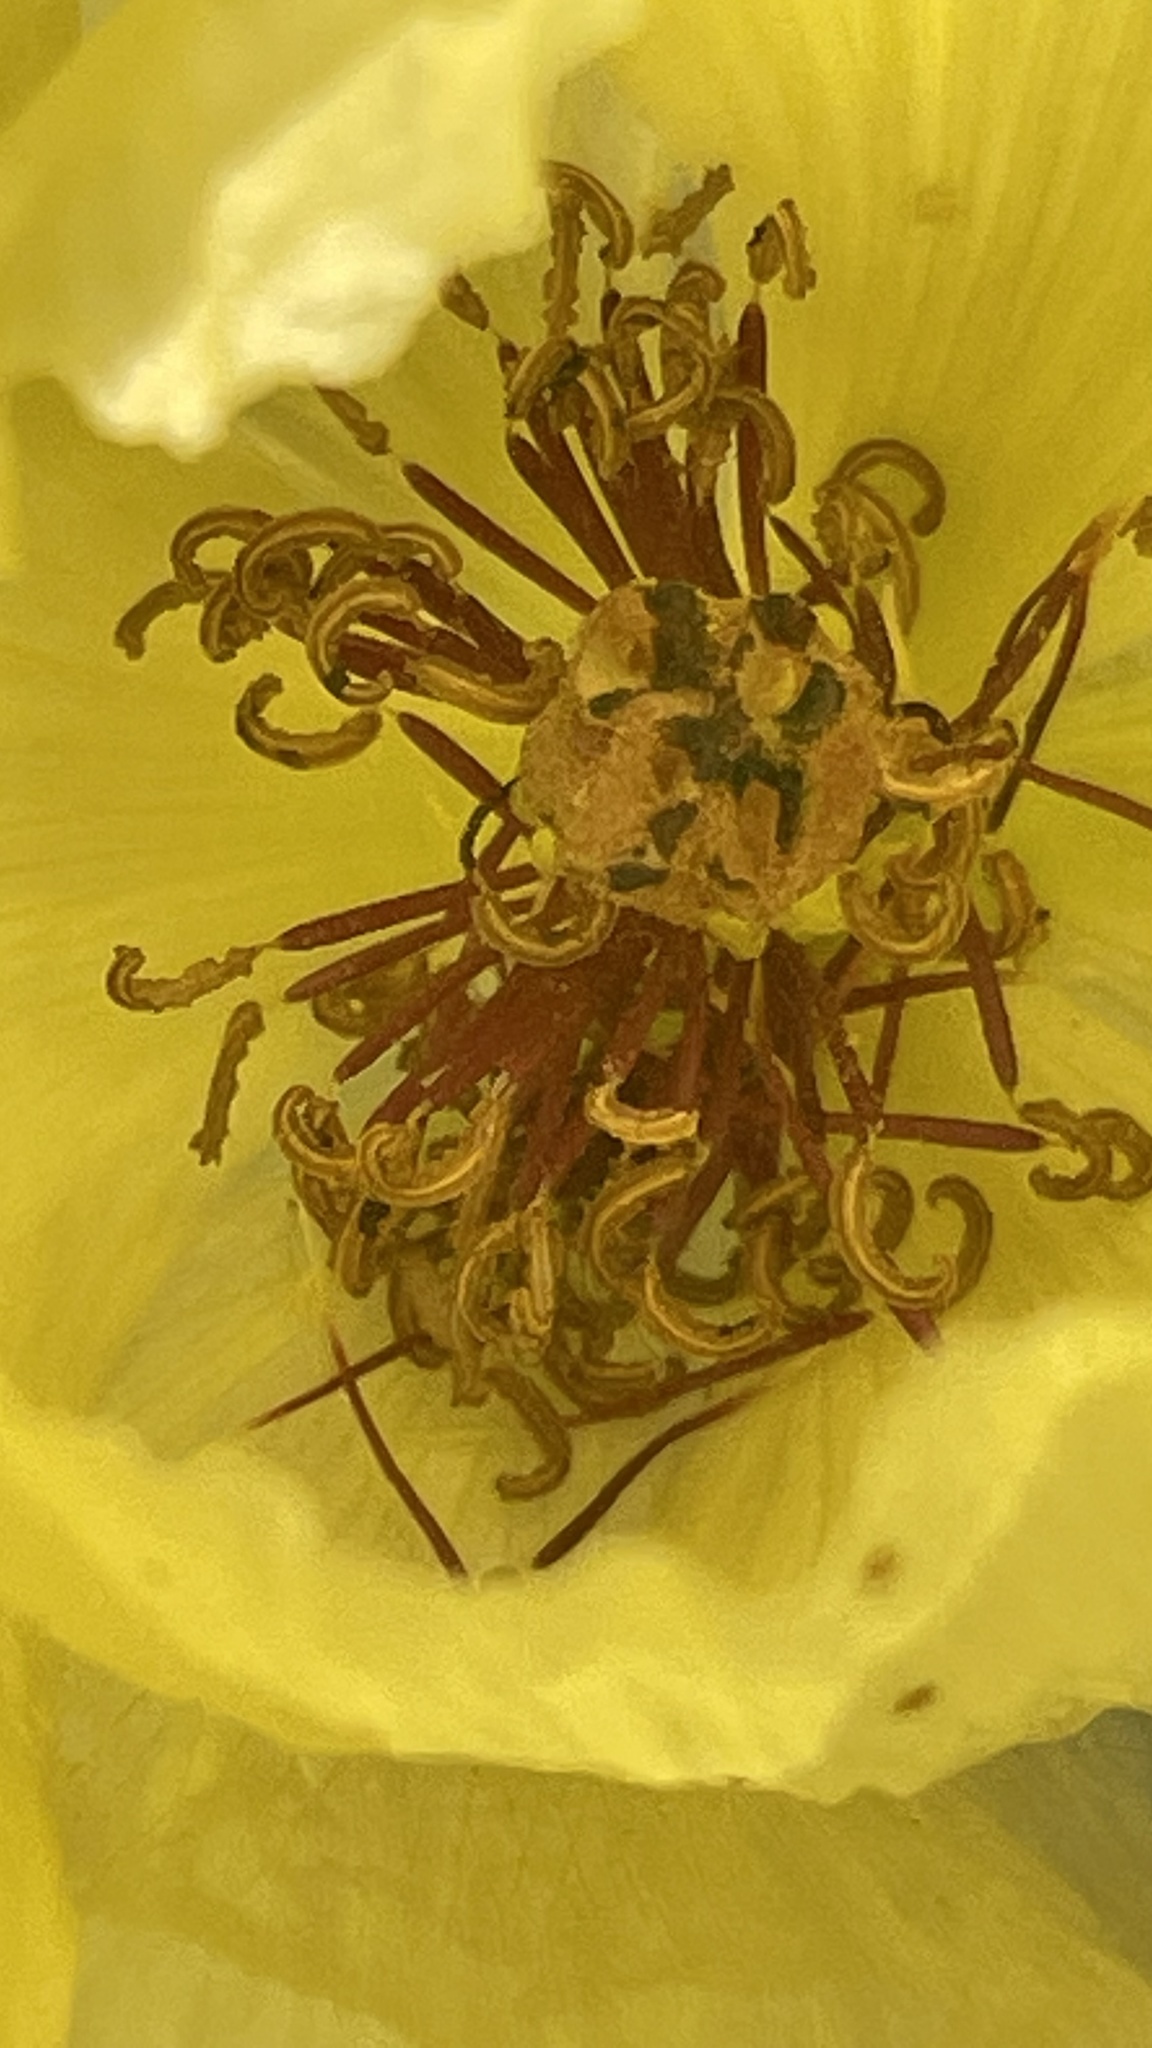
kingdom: Plantae
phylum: Tracheophyta
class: Magnoliopsida
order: Ranunculales
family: Papaveraceae
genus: Argemone
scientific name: Argemone aenea
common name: Golden prickly-poppy
